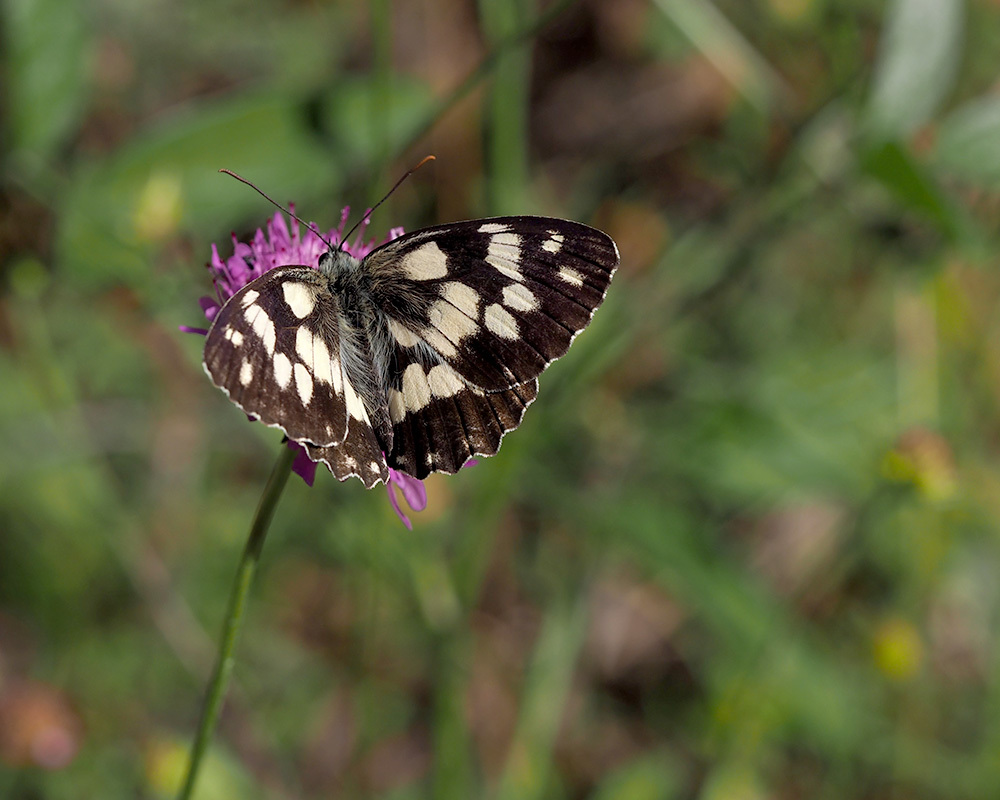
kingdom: Animalia
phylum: Arthropoda
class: Insecta
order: Lepidoptera
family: Nymphalidae
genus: Melanargia
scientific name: Melanargia galathea
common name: Marbled white
